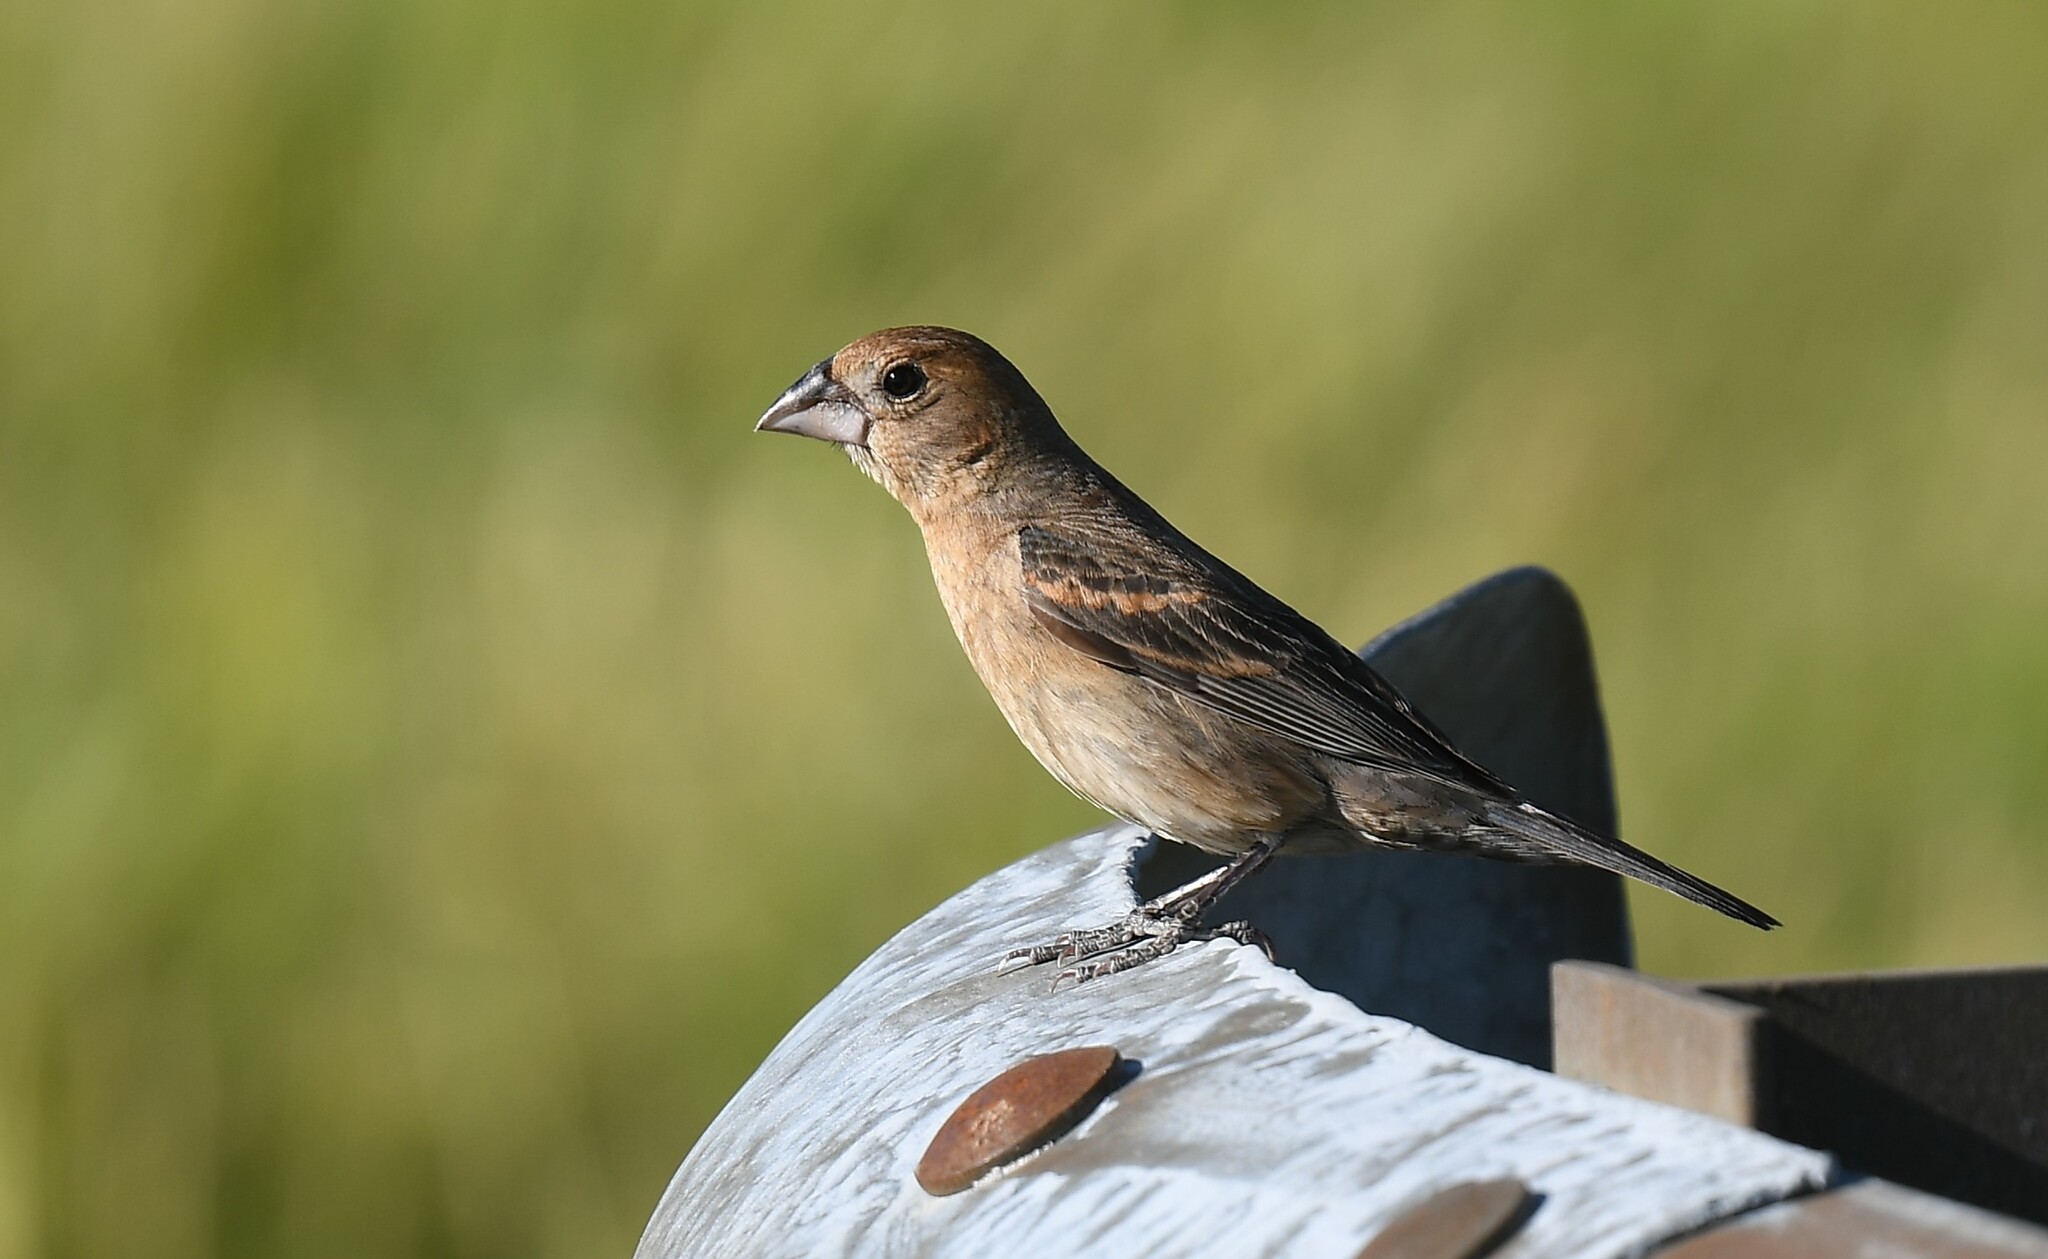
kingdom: Animalia
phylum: Chordata
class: Aves
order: Passeriformes
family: Cardinalidae
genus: Passerina
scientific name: Passerina caerulea
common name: Blue grosbeak
